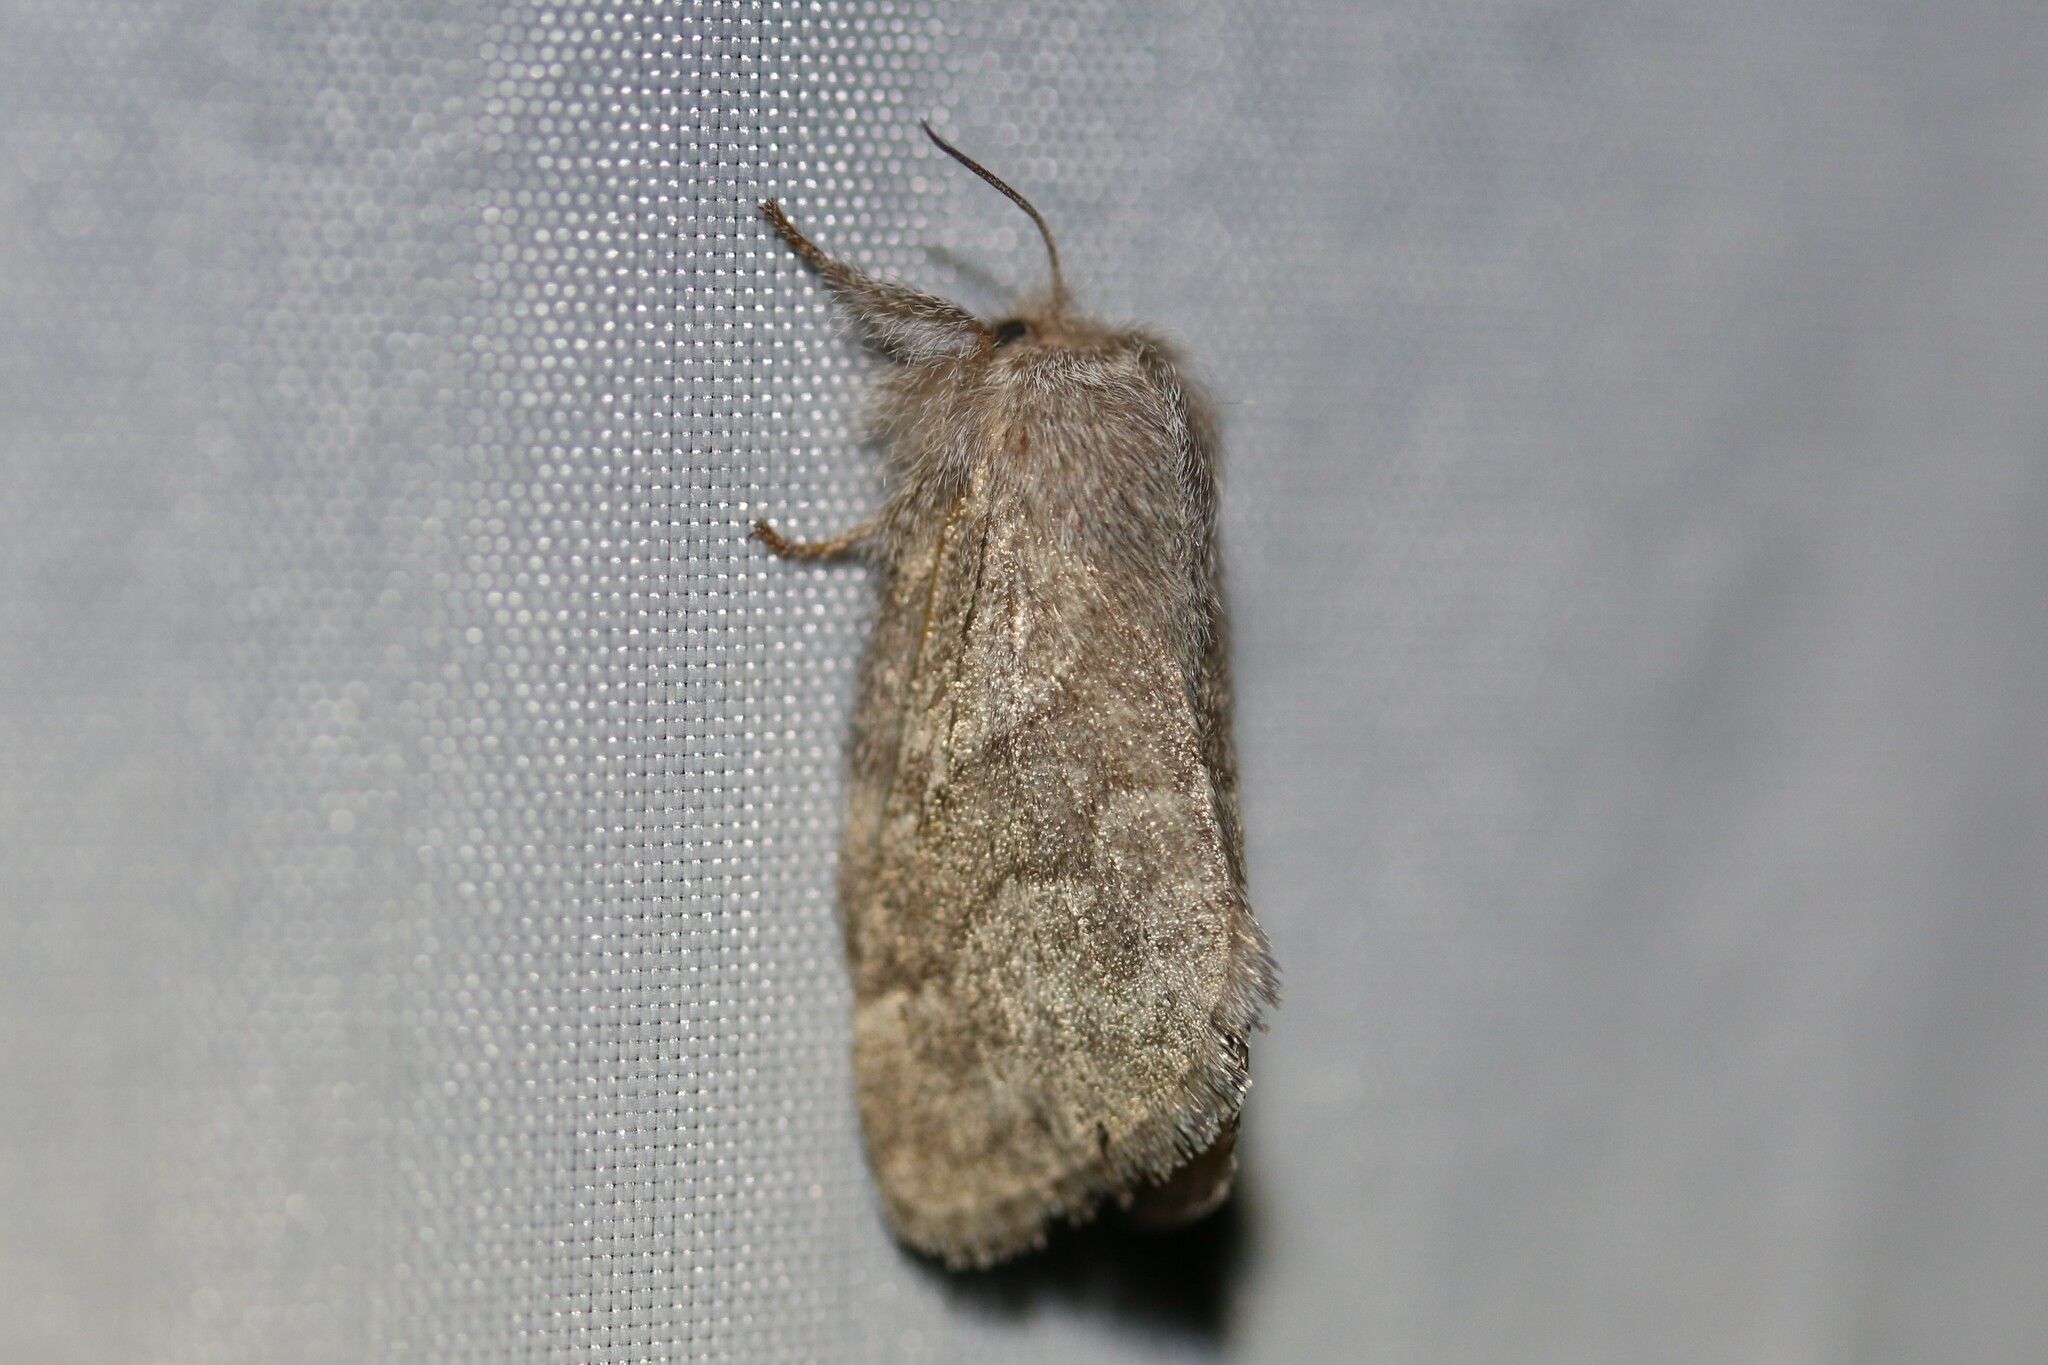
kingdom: Animalia
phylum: Arthropoda
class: Insecta
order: Lepidoptera
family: Lasiocampidae
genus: Trichiura
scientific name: Trichiura crataegi
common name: Pale eggar
